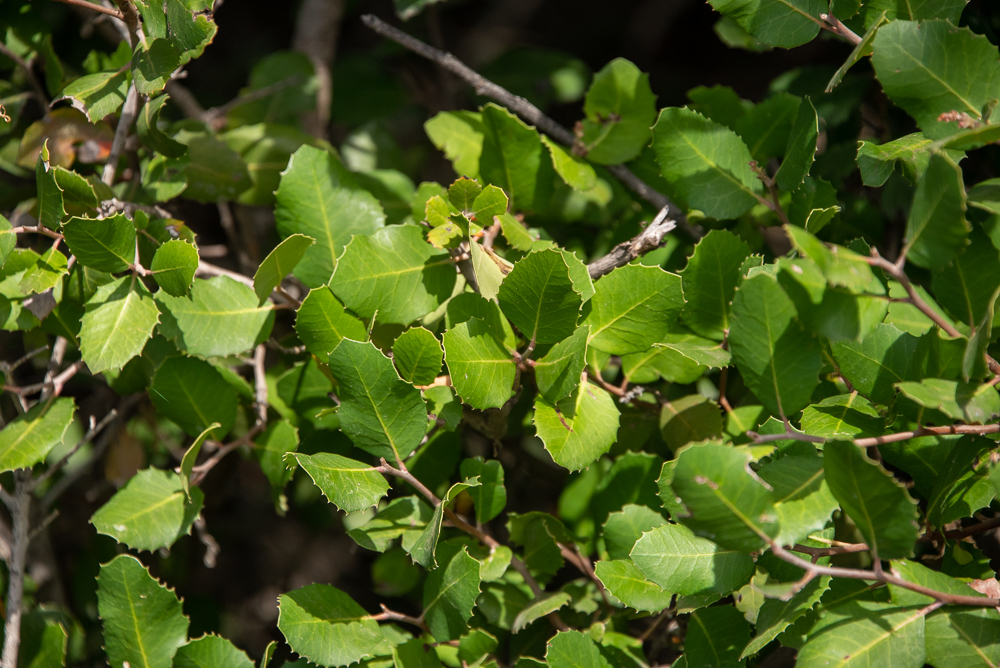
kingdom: Plantae
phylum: Tracheophyta
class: Magnoliopsida
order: Sapindales
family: Anacardiaceae
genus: Rhus
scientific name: Rhus integrifolia
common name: Lemonade sumac
